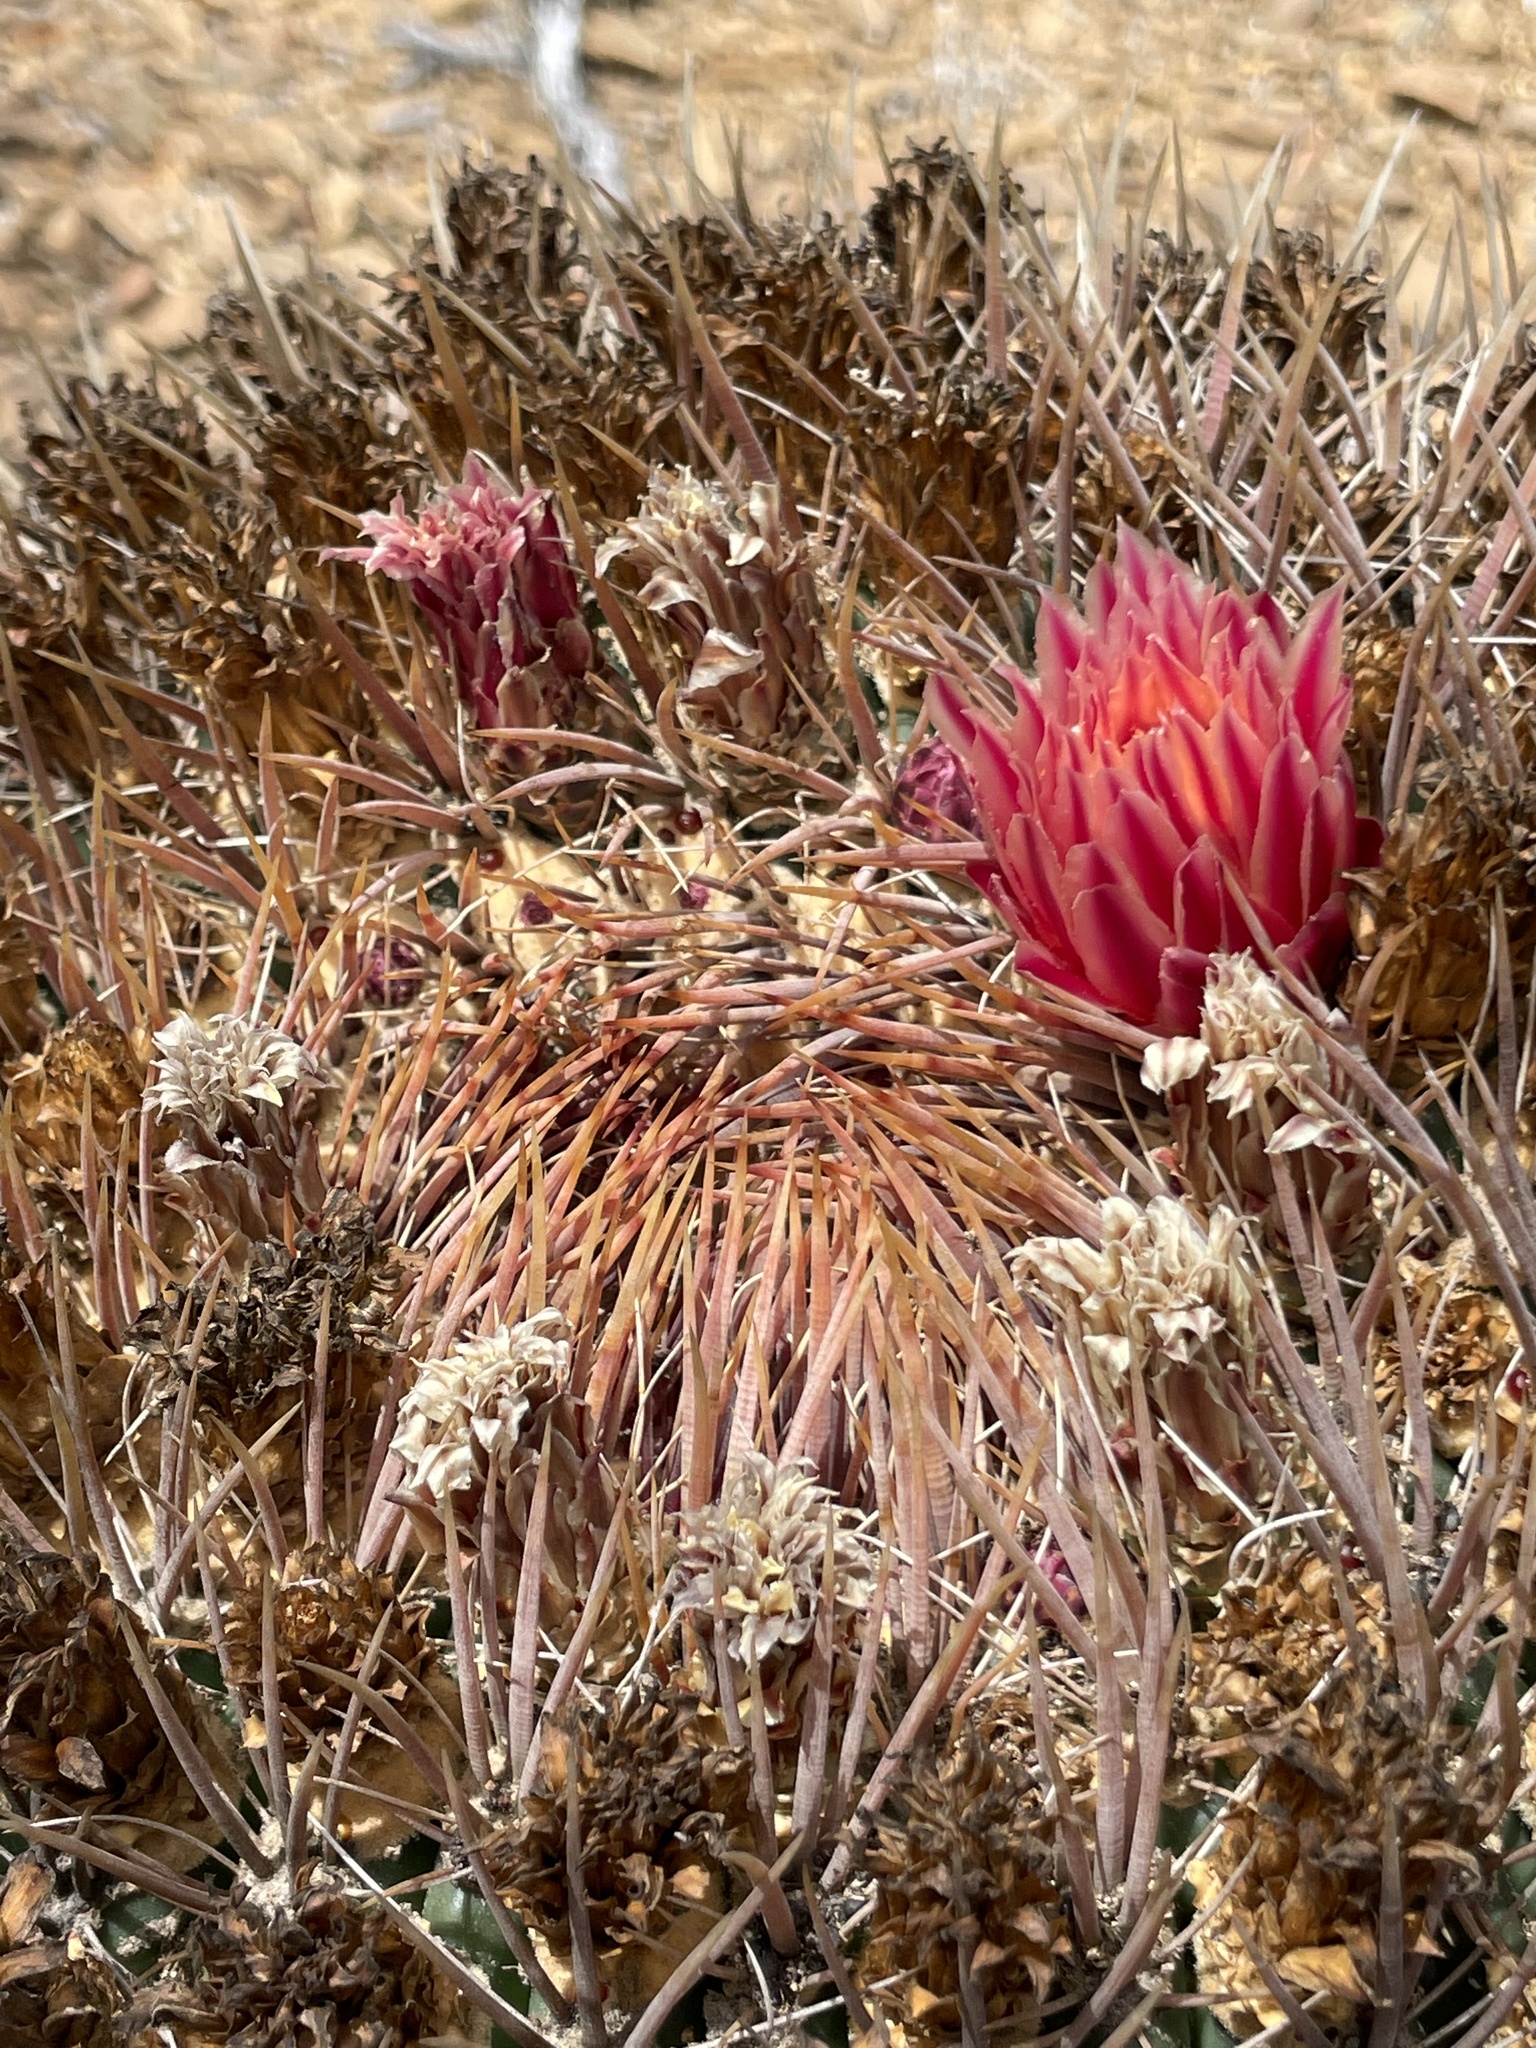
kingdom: Plantae
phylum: Tracheophyta
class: Magnoliopsida
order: Caryophyllales
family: Cactaceae
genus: Ferocactus
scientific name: Ferocactus chrysacanthus
